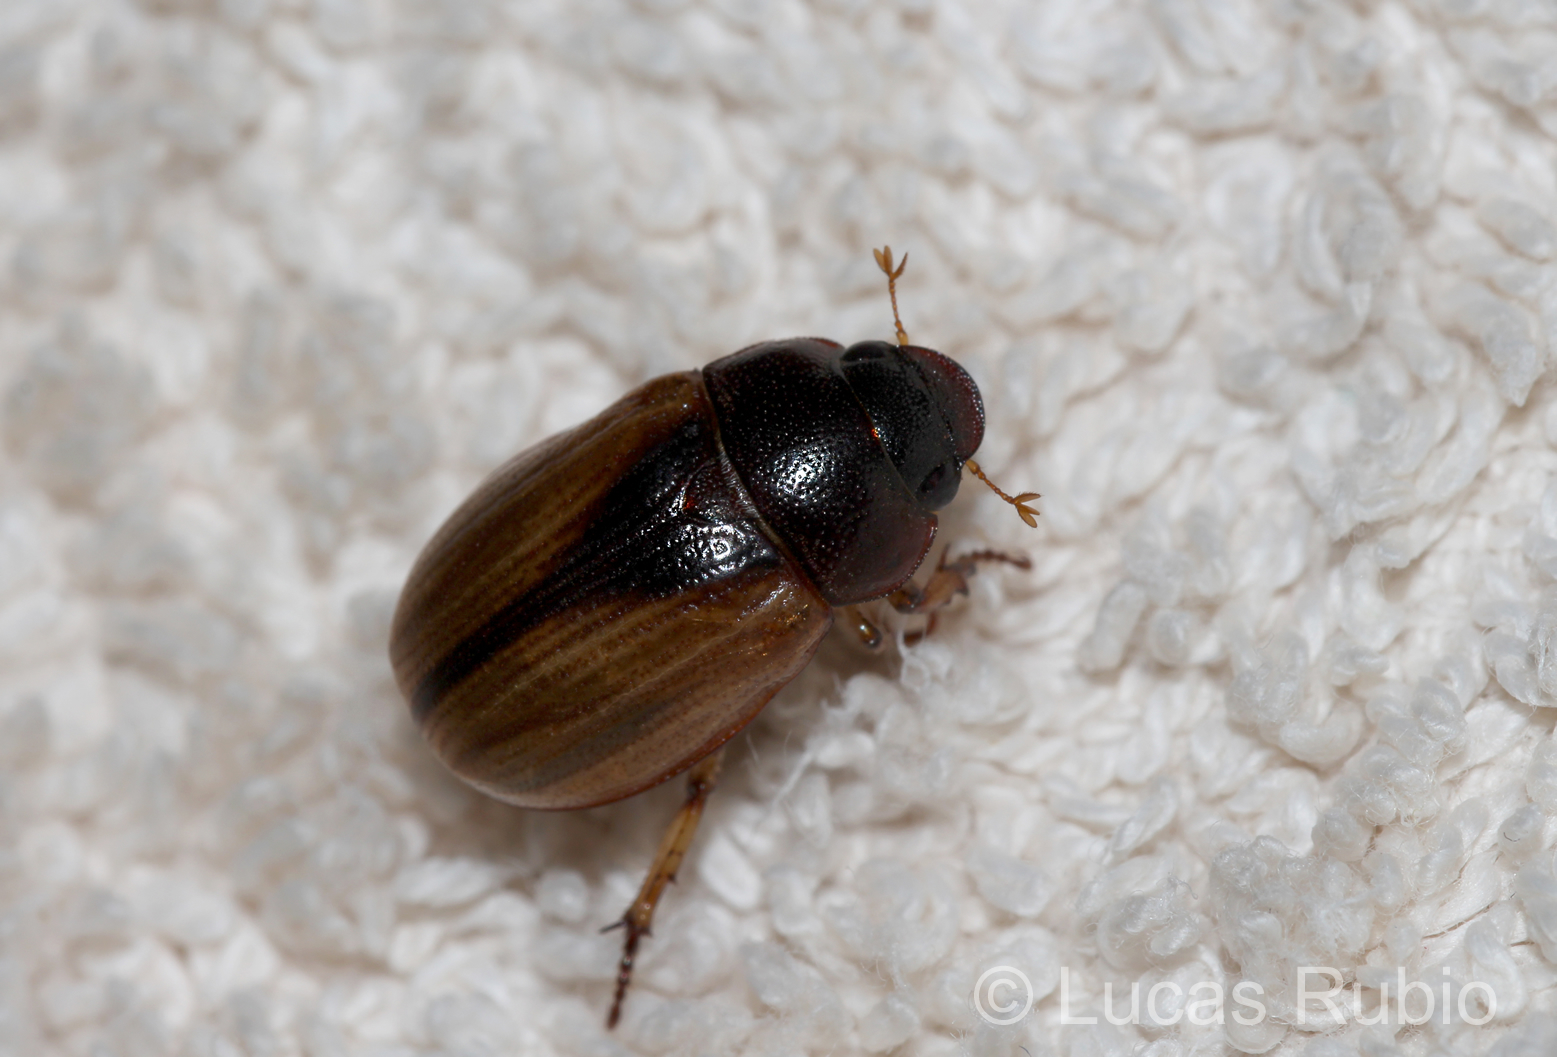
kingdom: Animalia
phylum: Arthropoda
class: Insecta
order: Coleoptera
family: Scarabaeidae
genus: Leucothyreus
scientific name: Leucothyreus marginaticollis
